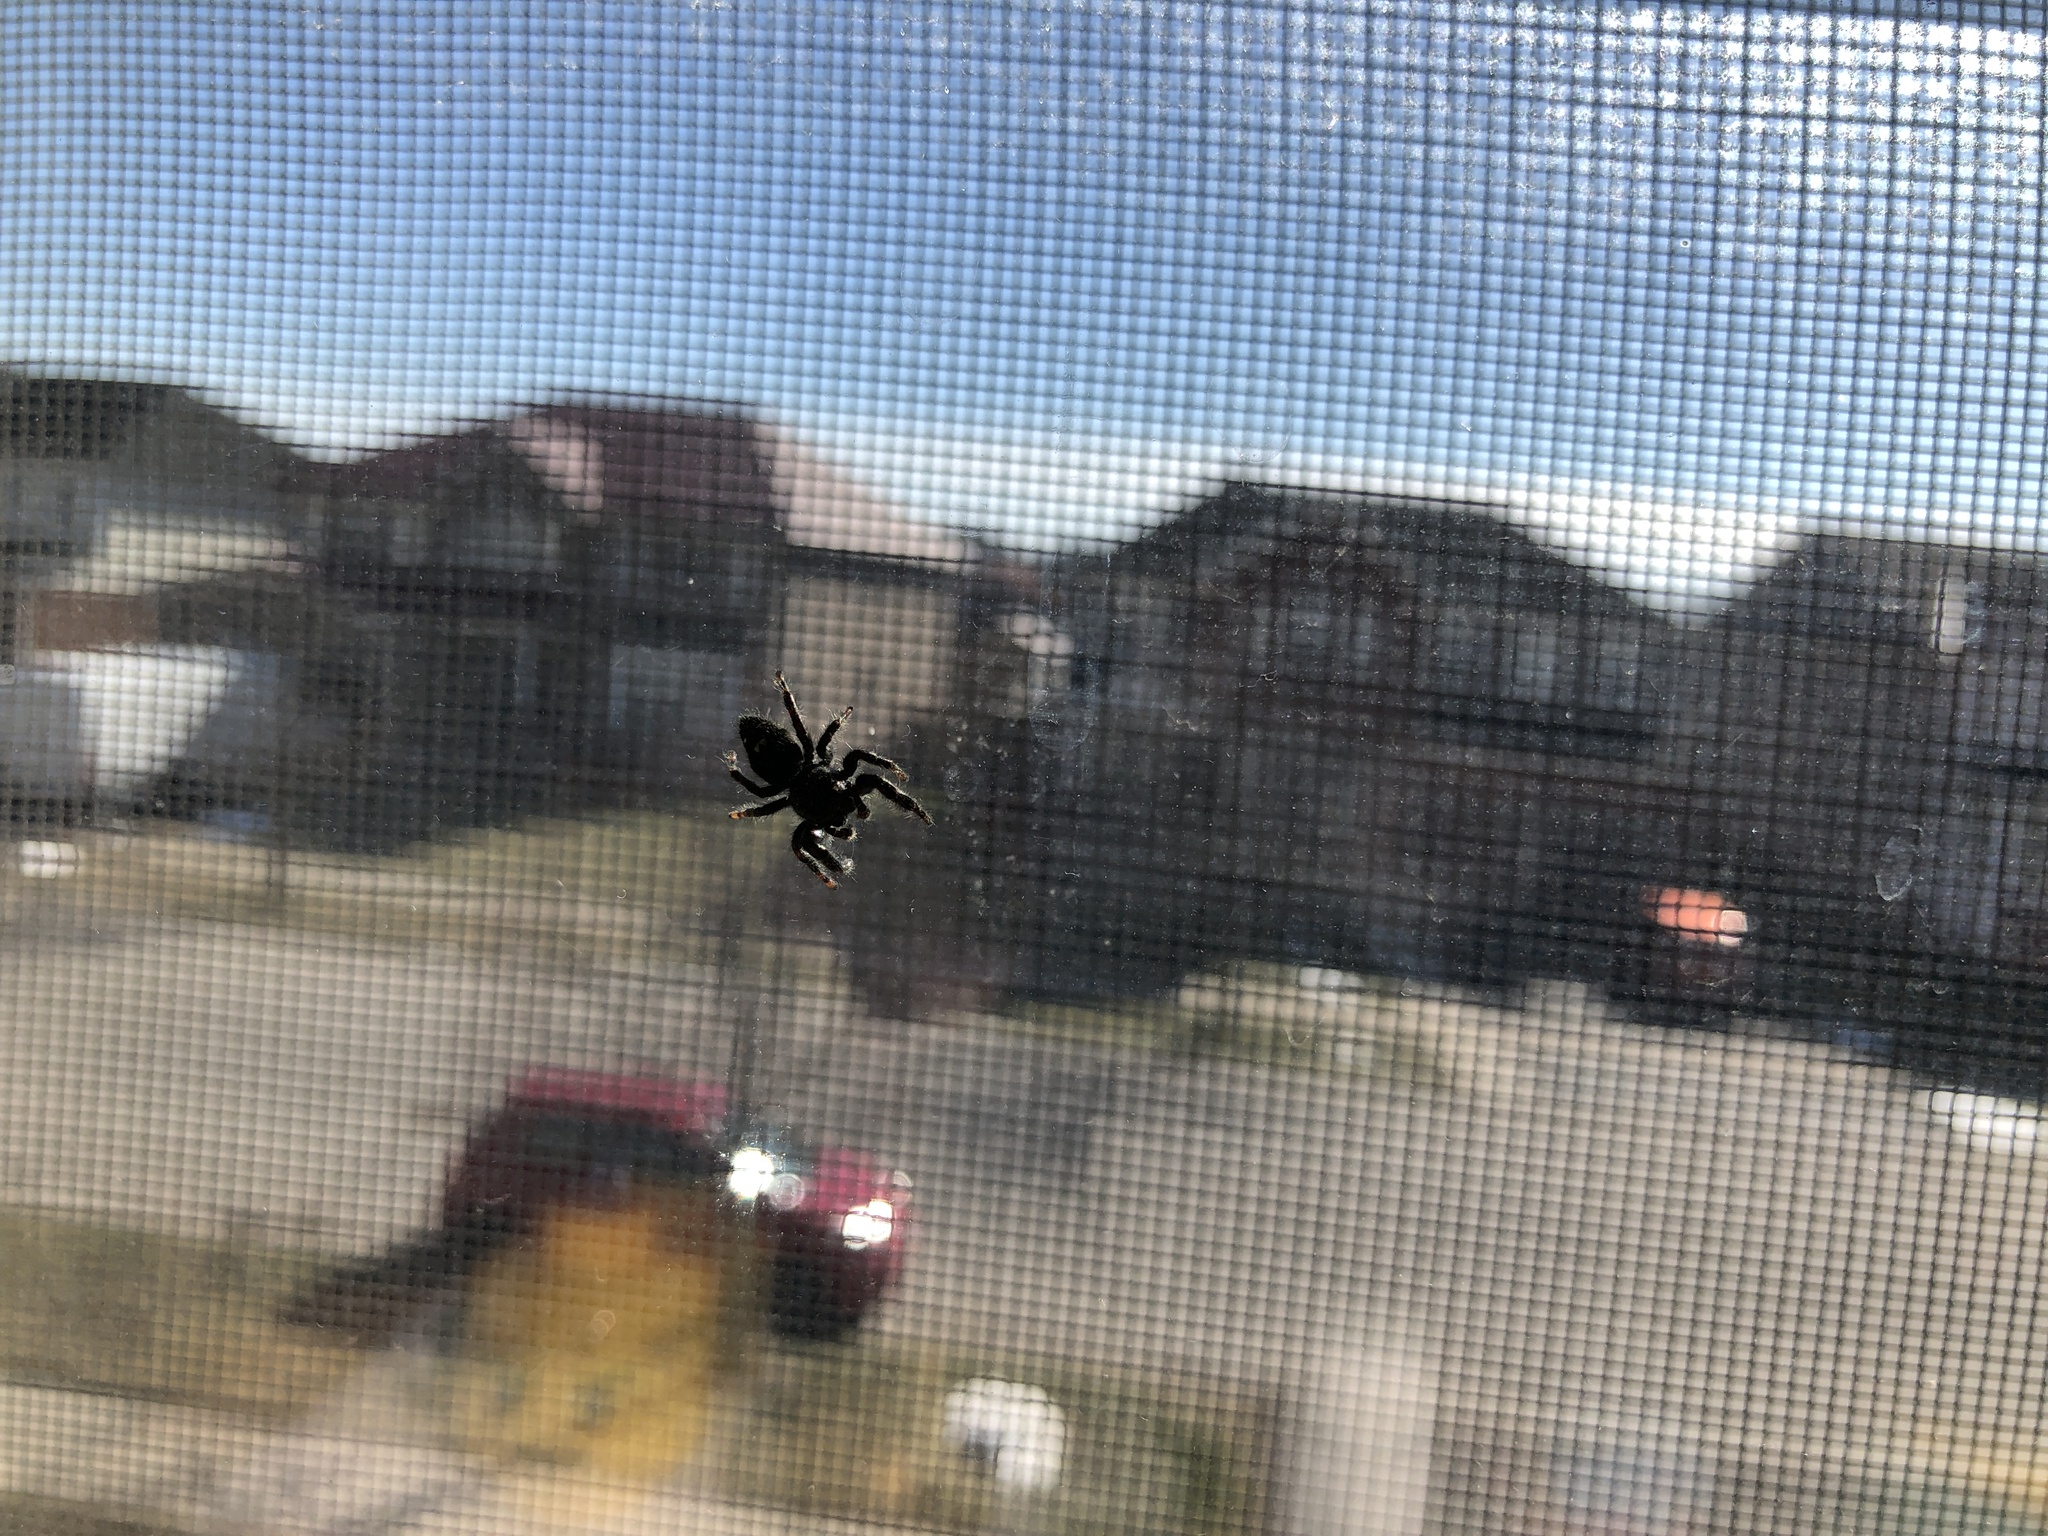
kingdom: Animalia
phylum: Arthropoda
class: Arachnida
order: Araneae
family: Salticidae
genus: Phidippus
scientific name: Phidippus audax
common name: Bold jumper
